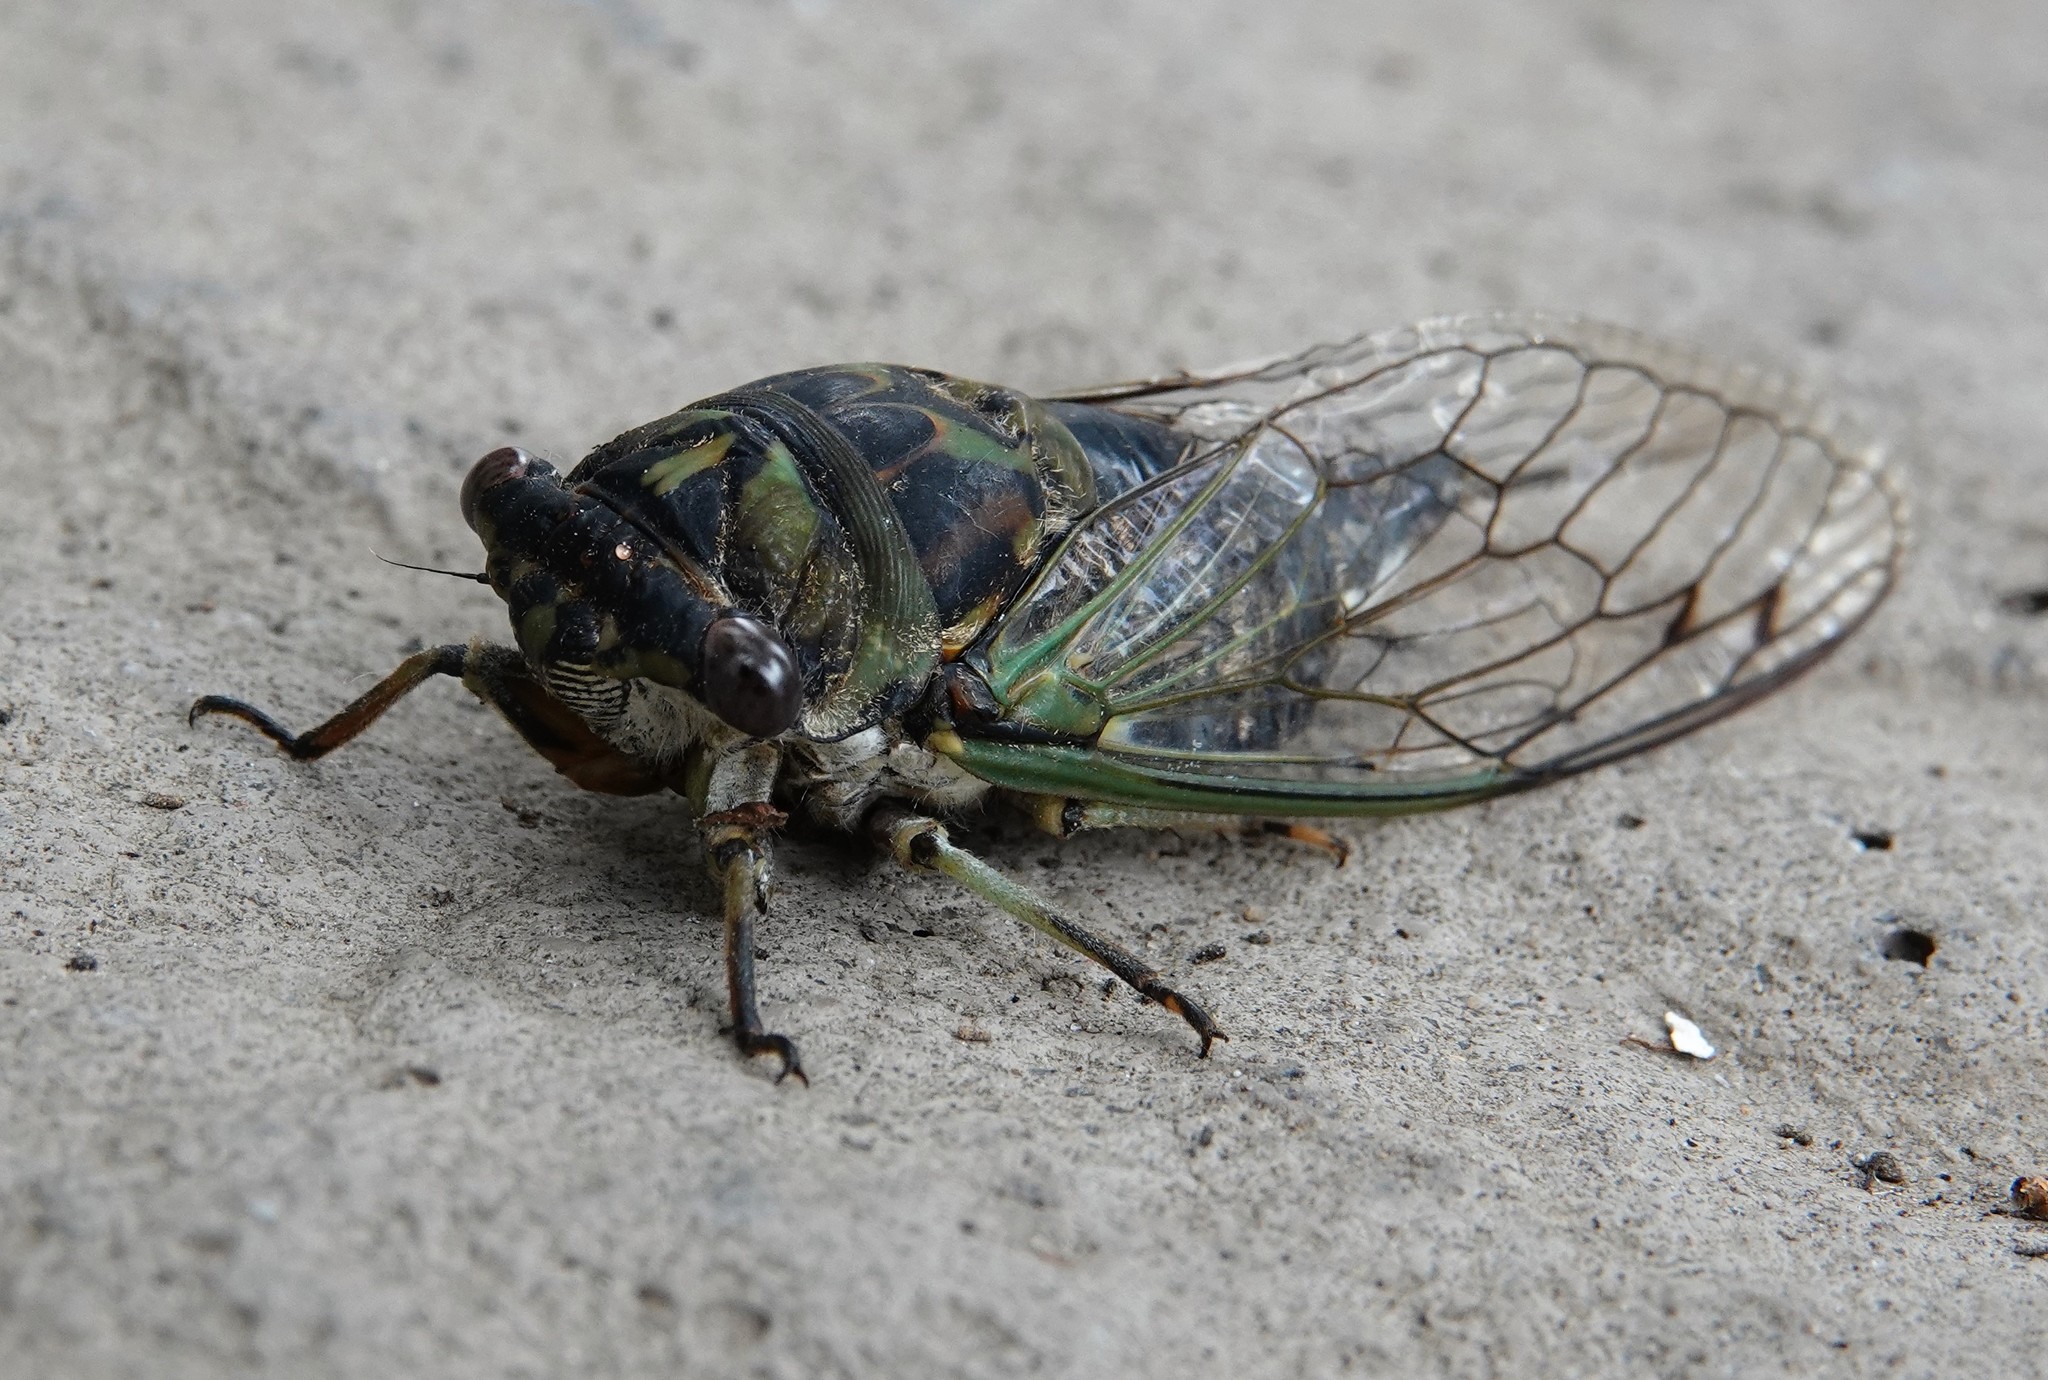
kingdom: Animalia
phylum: Arthropoda
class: Insecta
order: Hemiptera
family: Cicadidae
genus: Neotibicen
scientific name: Neotibicen canicularis
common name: God-day cicada
